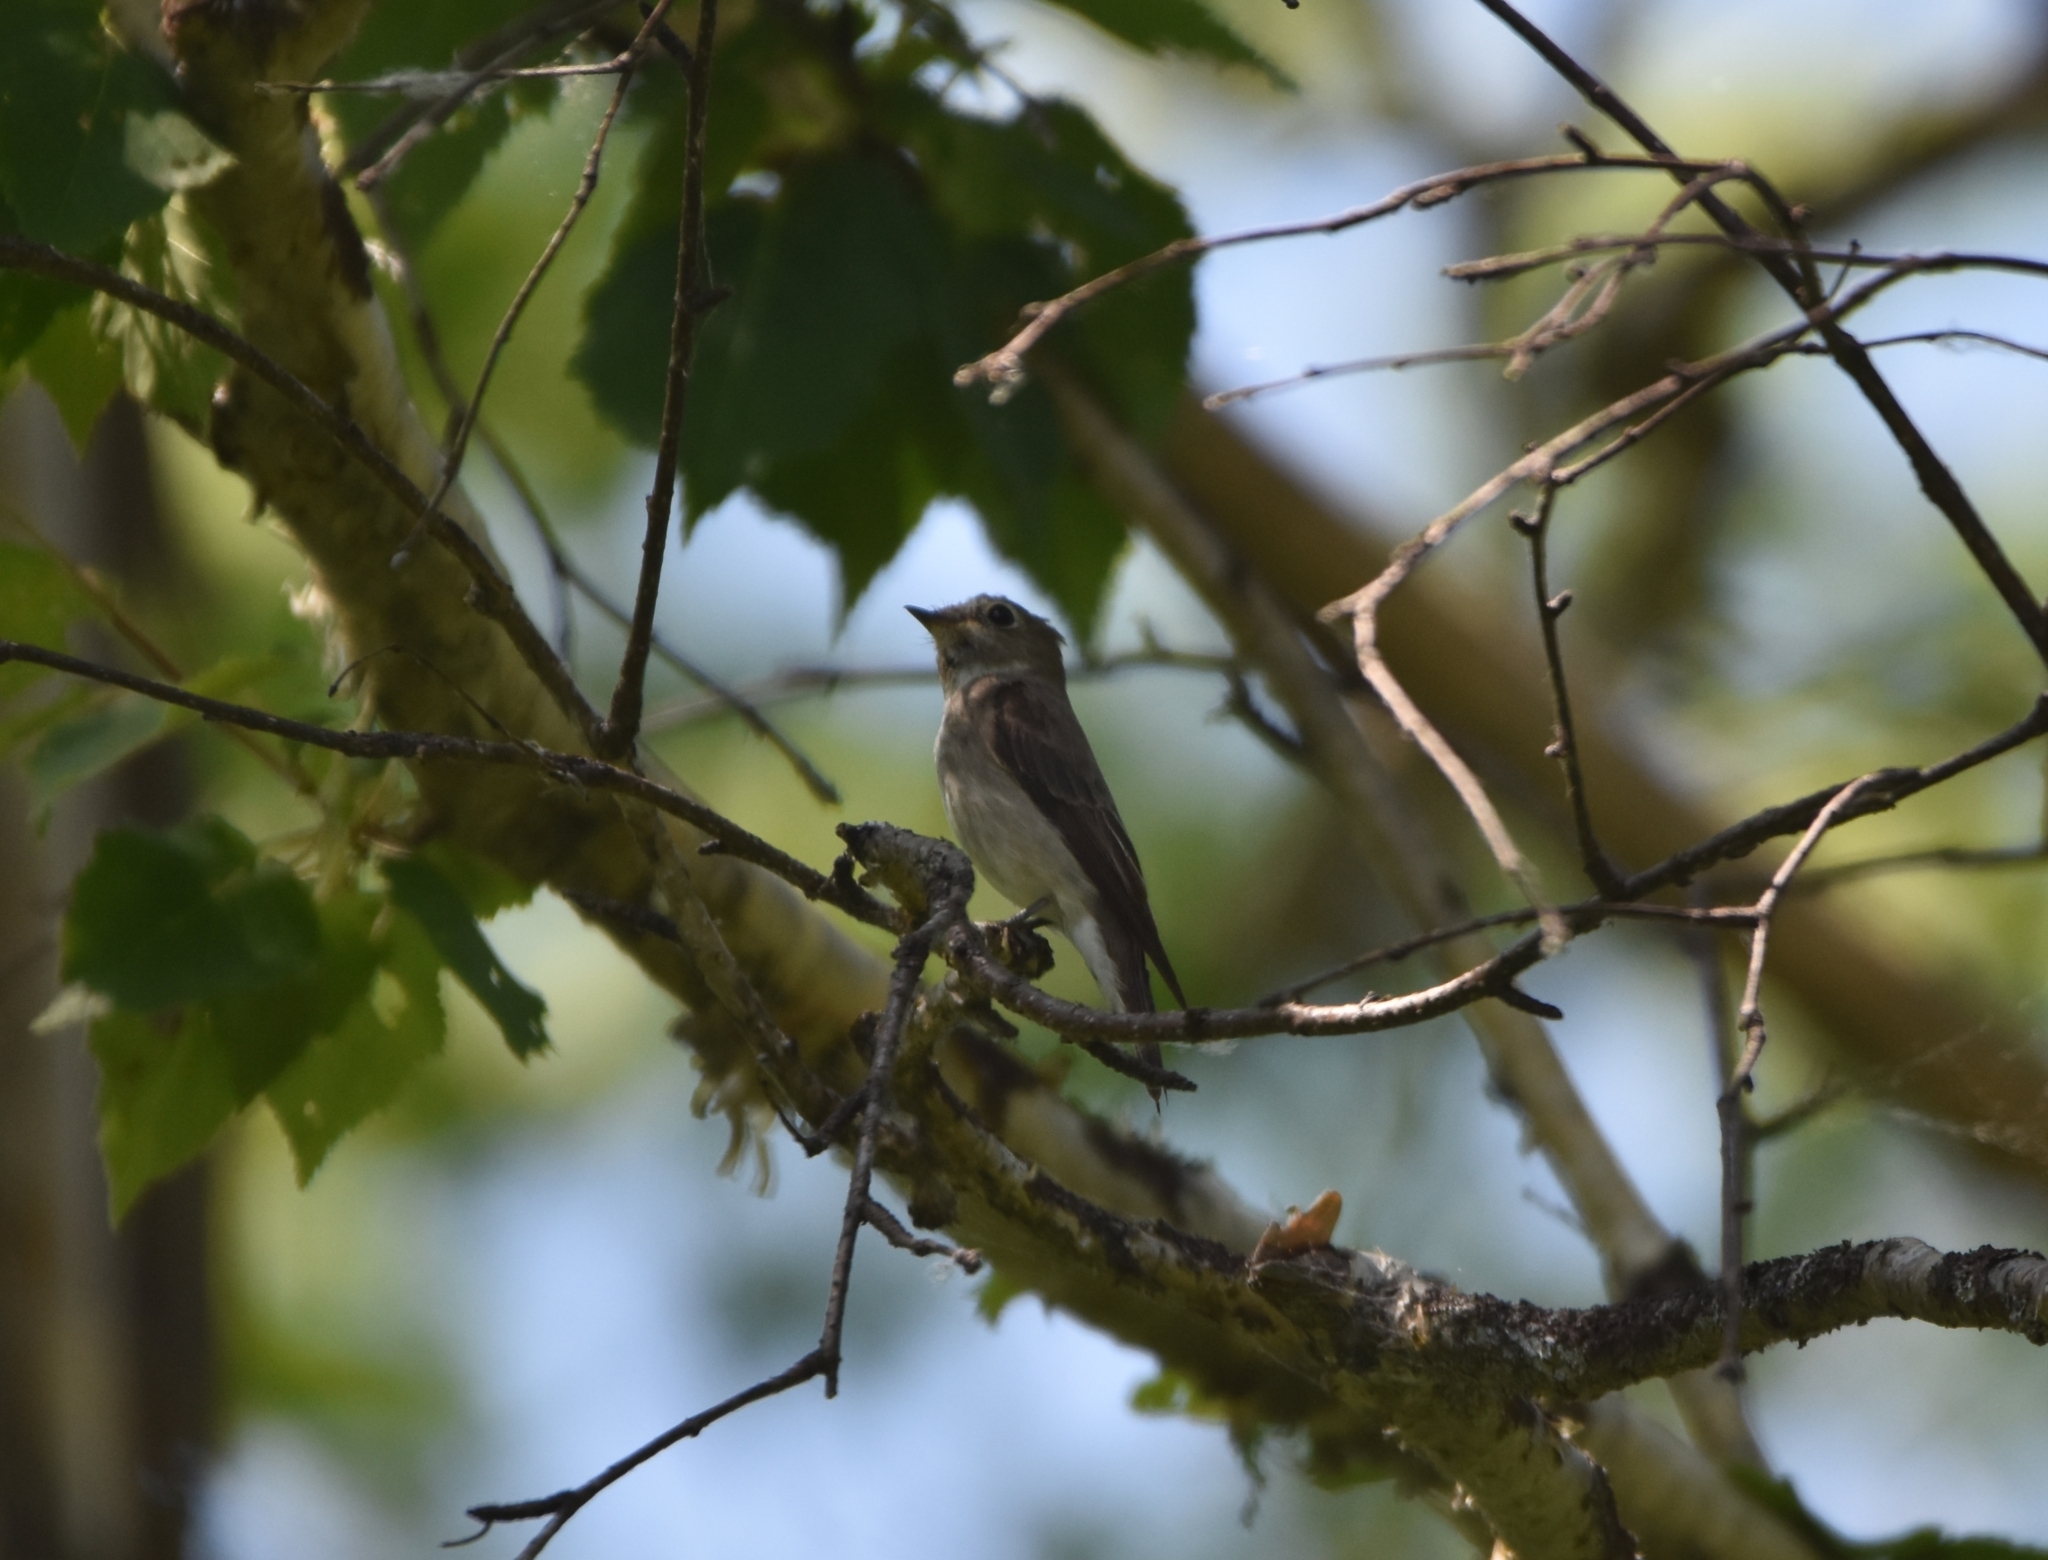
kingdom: Animalia
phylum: Chordata
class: Aves
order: Passeriformes
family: Muscicapidae
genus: Muscicapa
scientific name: Muscicapa sibirica
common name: Dark-sided flycatcher
